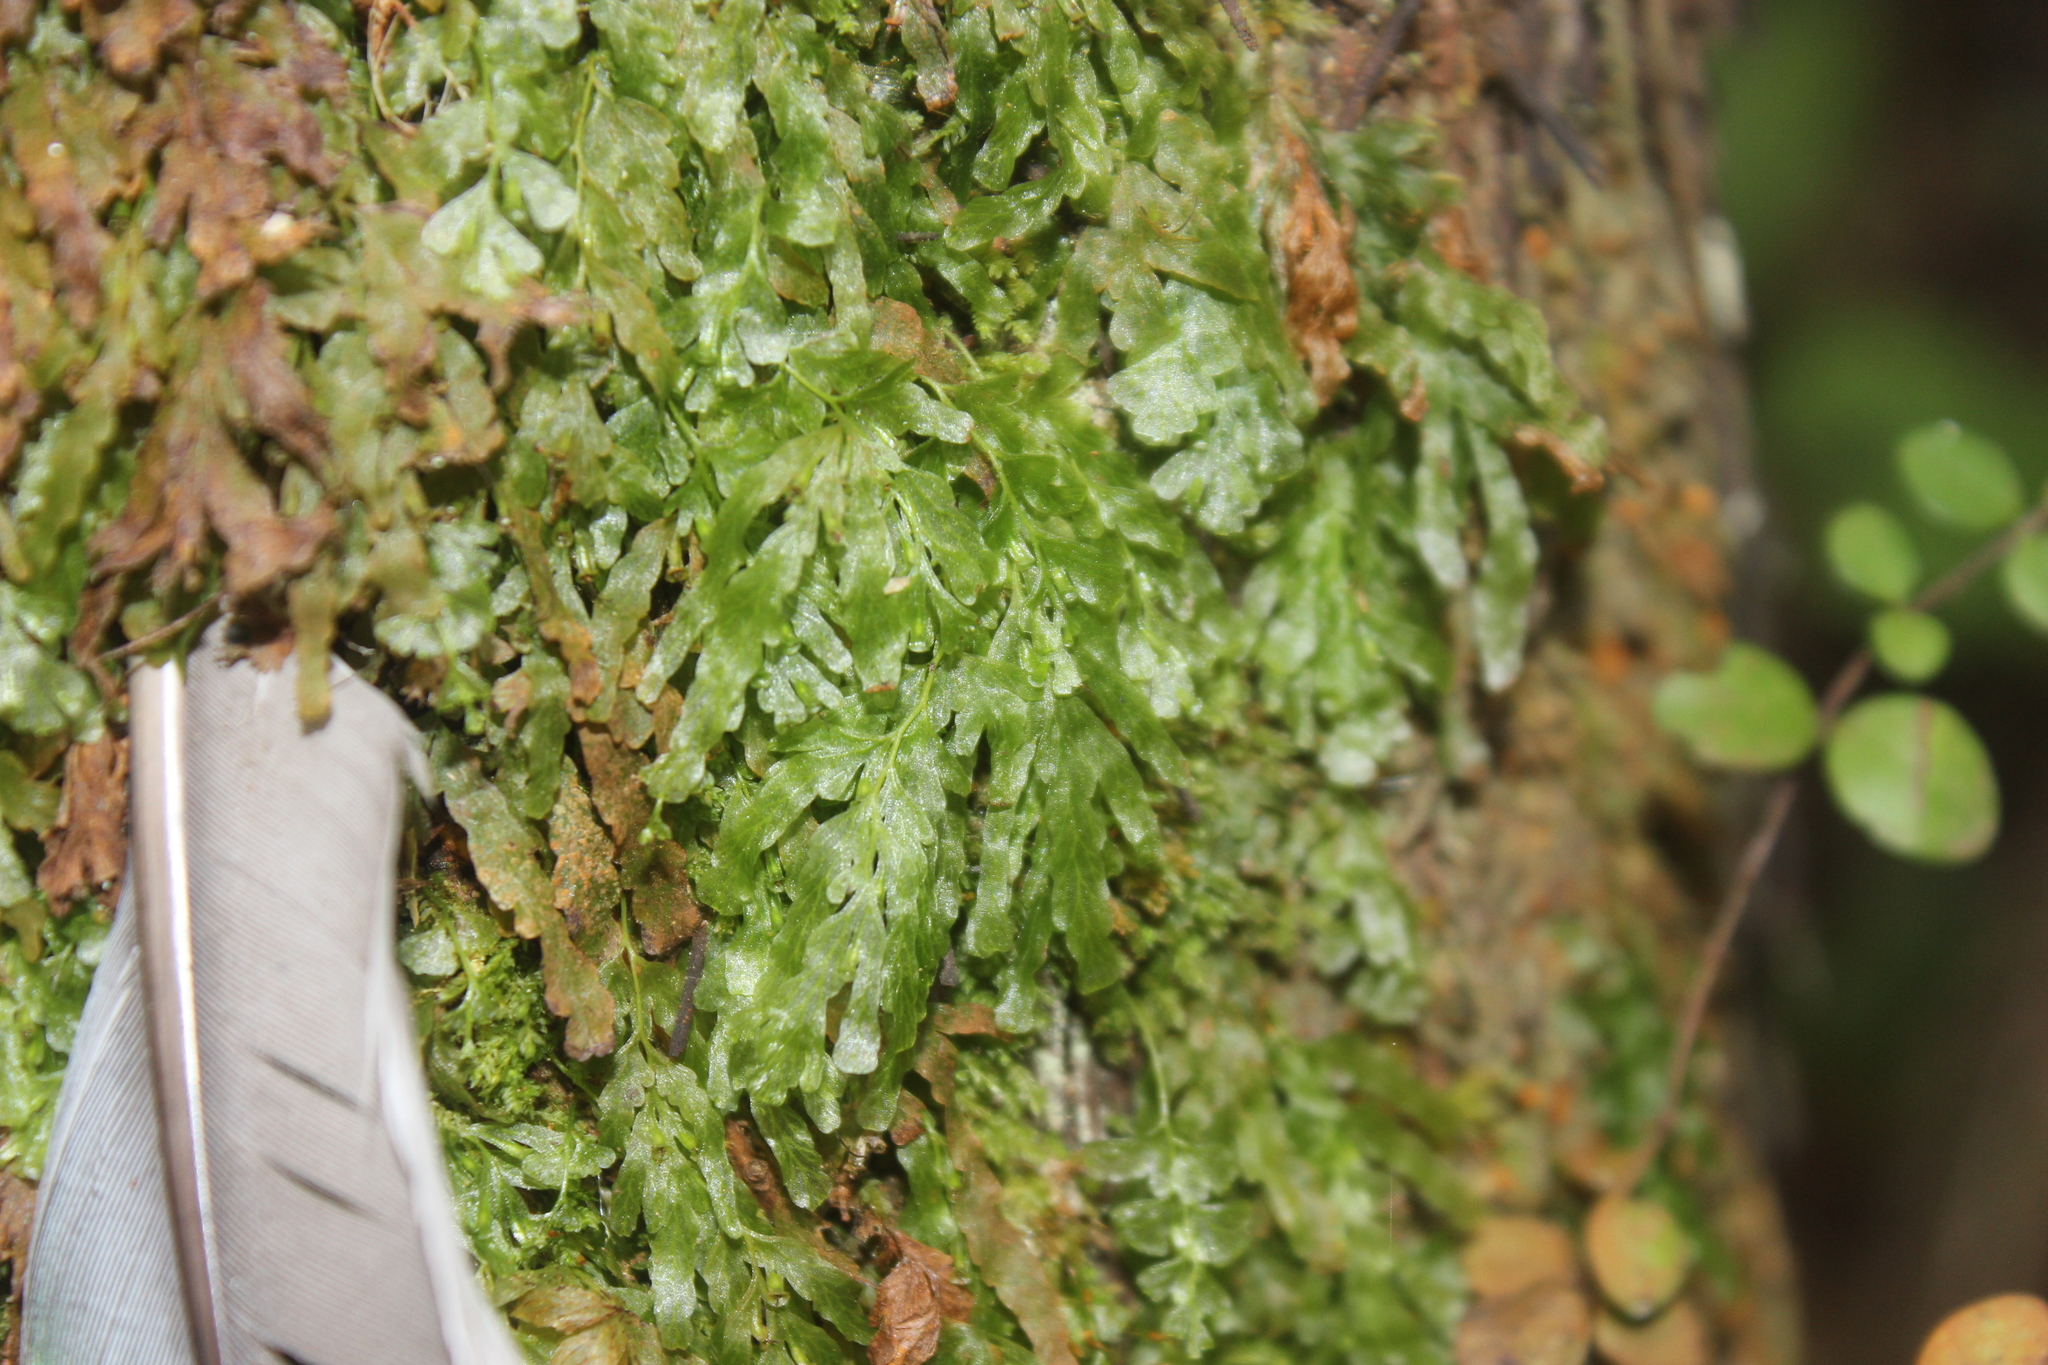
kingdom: Plantae
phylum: Tracheophyta
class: Polypodiopsida
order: Hymenophyllales
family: Hymenophyllaceae
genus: Polyphlebium
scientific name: Polyphlebium venosum
